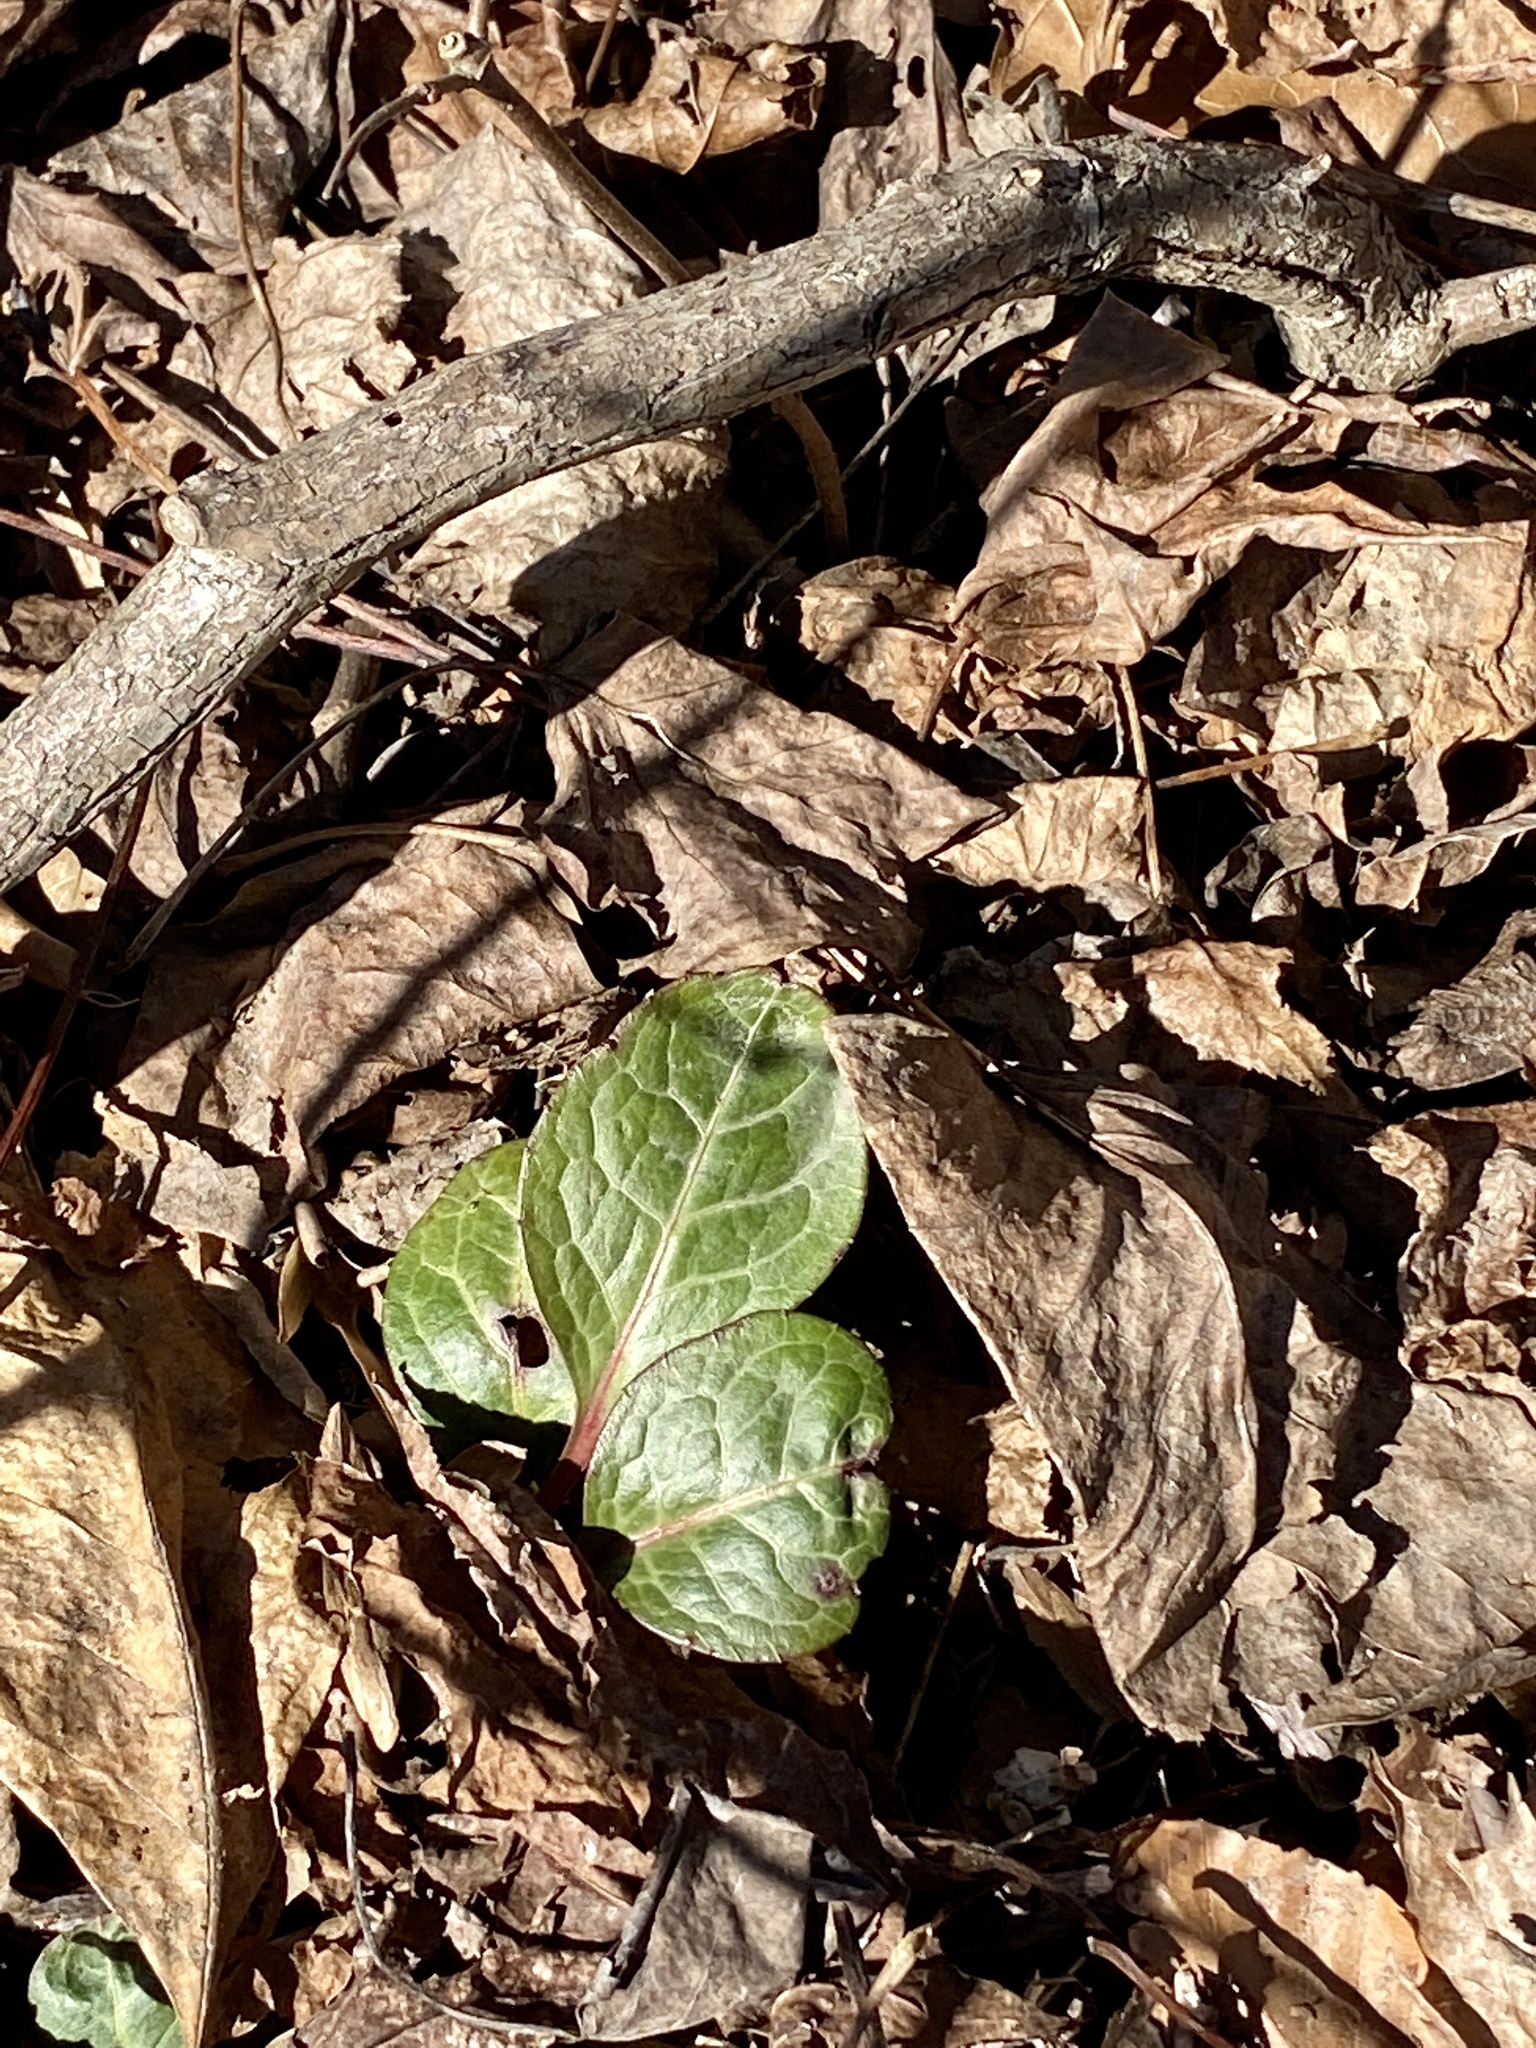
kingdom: Plantae
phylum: Tracheophyta
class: Magnoliopsida
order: Ericales
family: Ericaceae
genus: Pyrola
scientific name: Pyrola americana
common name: American wintergreen
